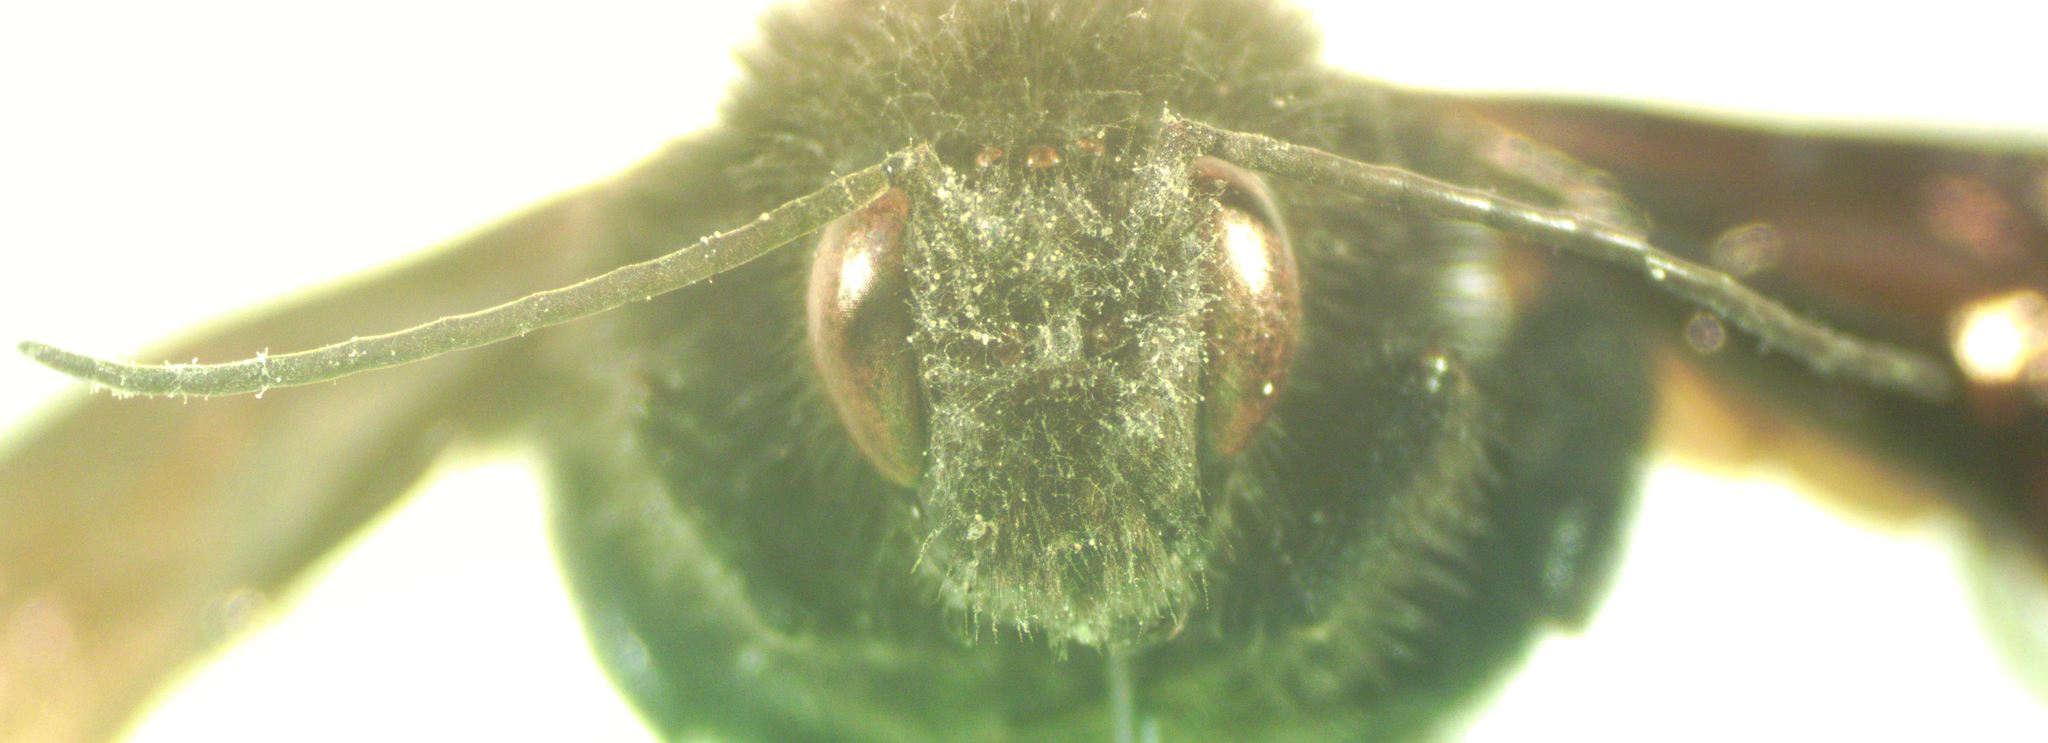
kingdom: Animalia
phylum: Arthropoda
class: Insecta
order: Hymenoptera
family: Apidae
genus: Bombus
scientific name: Bombus pullatus
